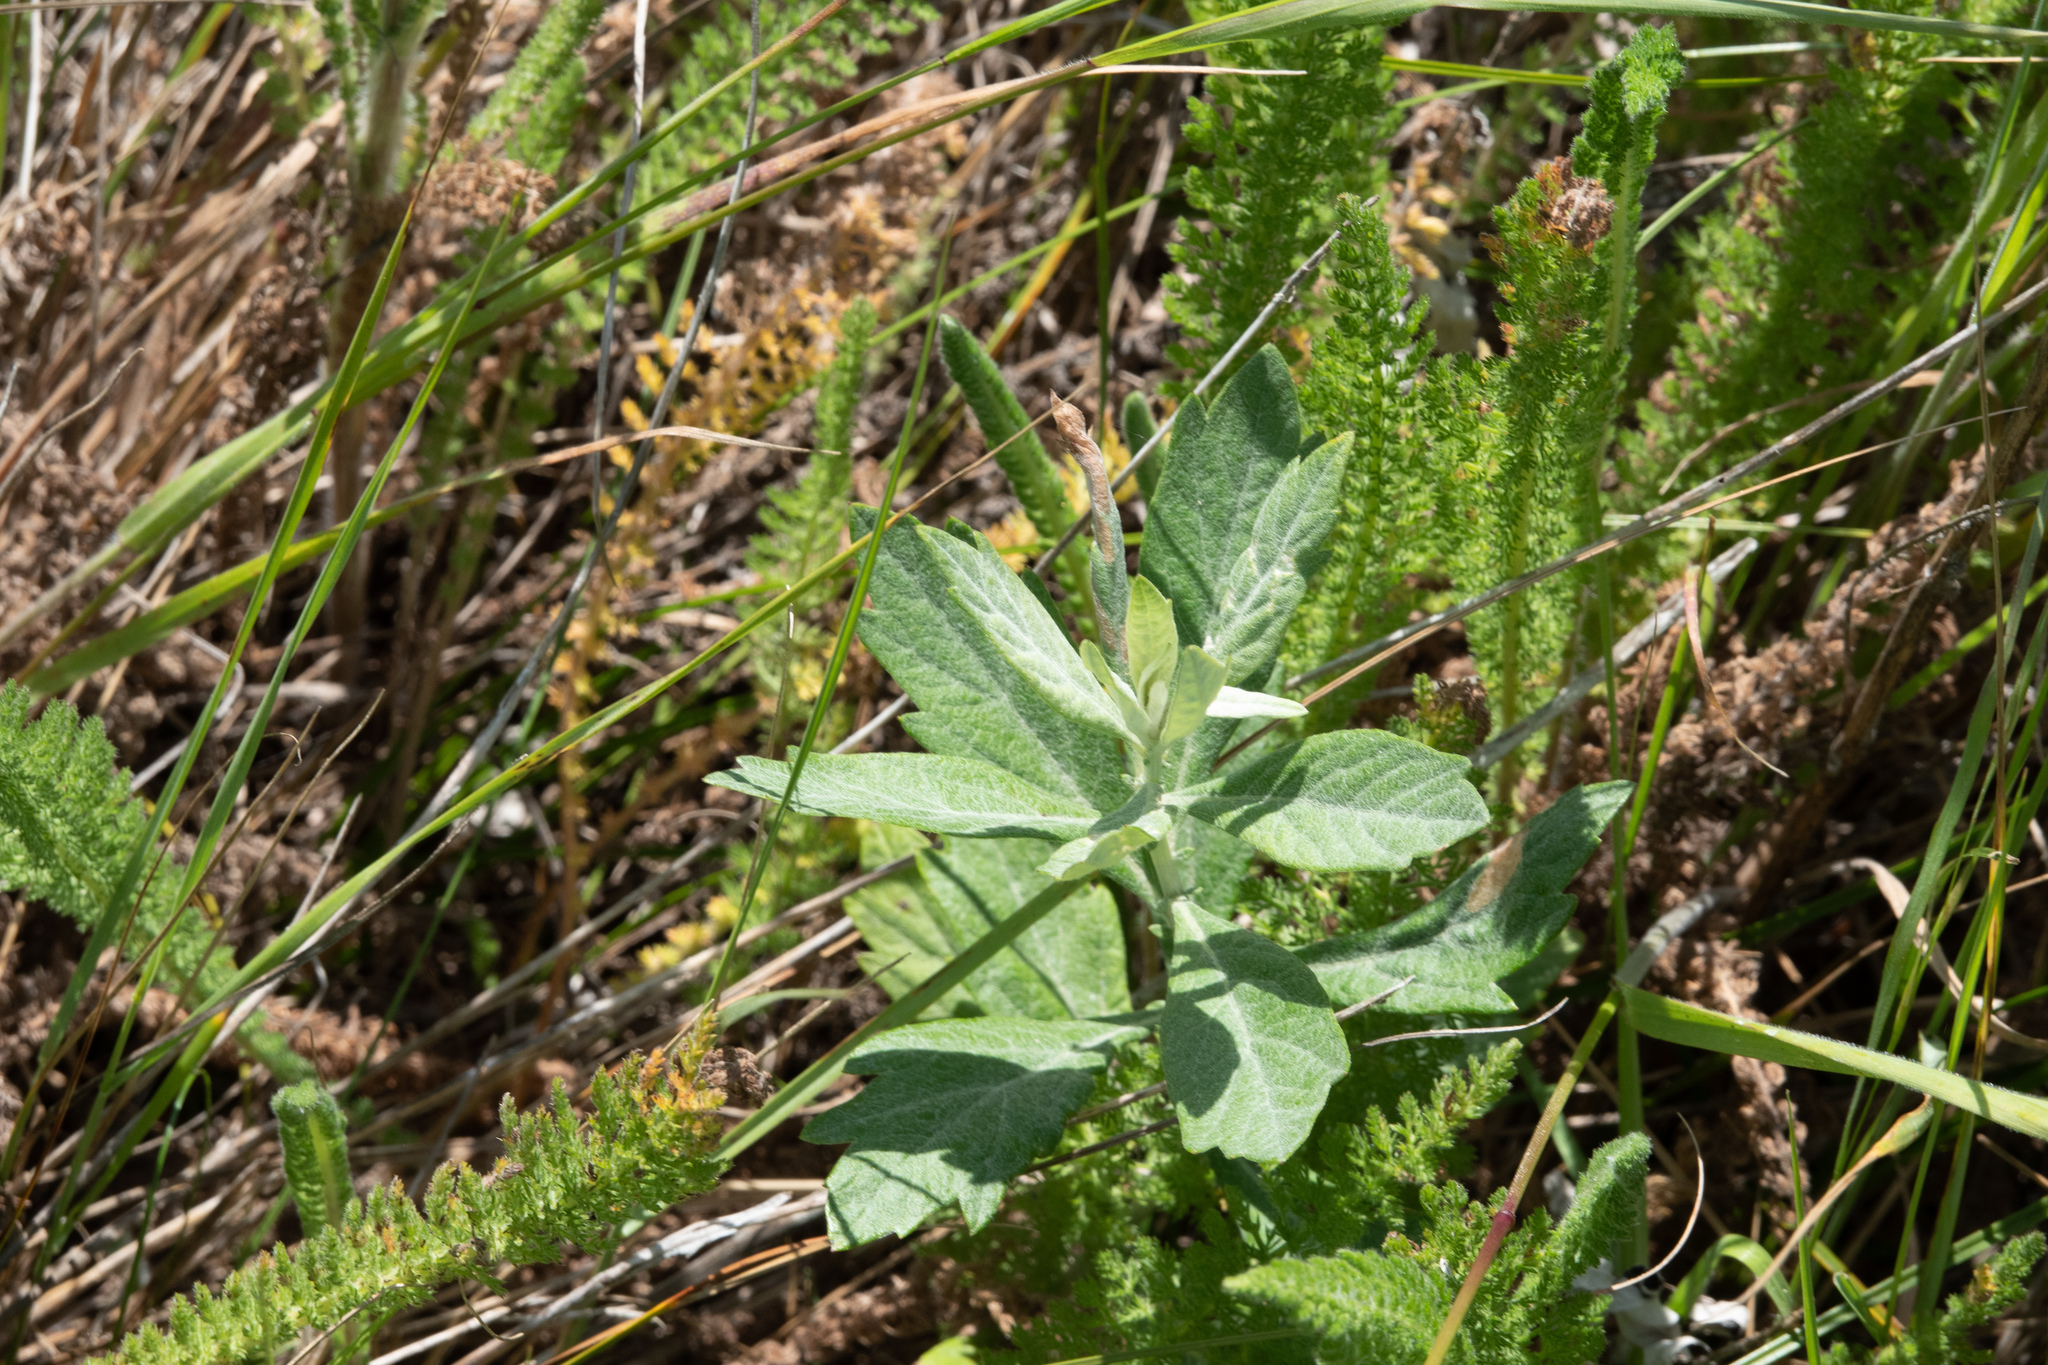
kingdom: Plantae
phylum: Tracheophyta
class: Magnoliopsida
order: Asterales
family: Asteraceae
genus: Artemisia
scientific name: Artemisia douglasiana
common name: Northwest mugwort
